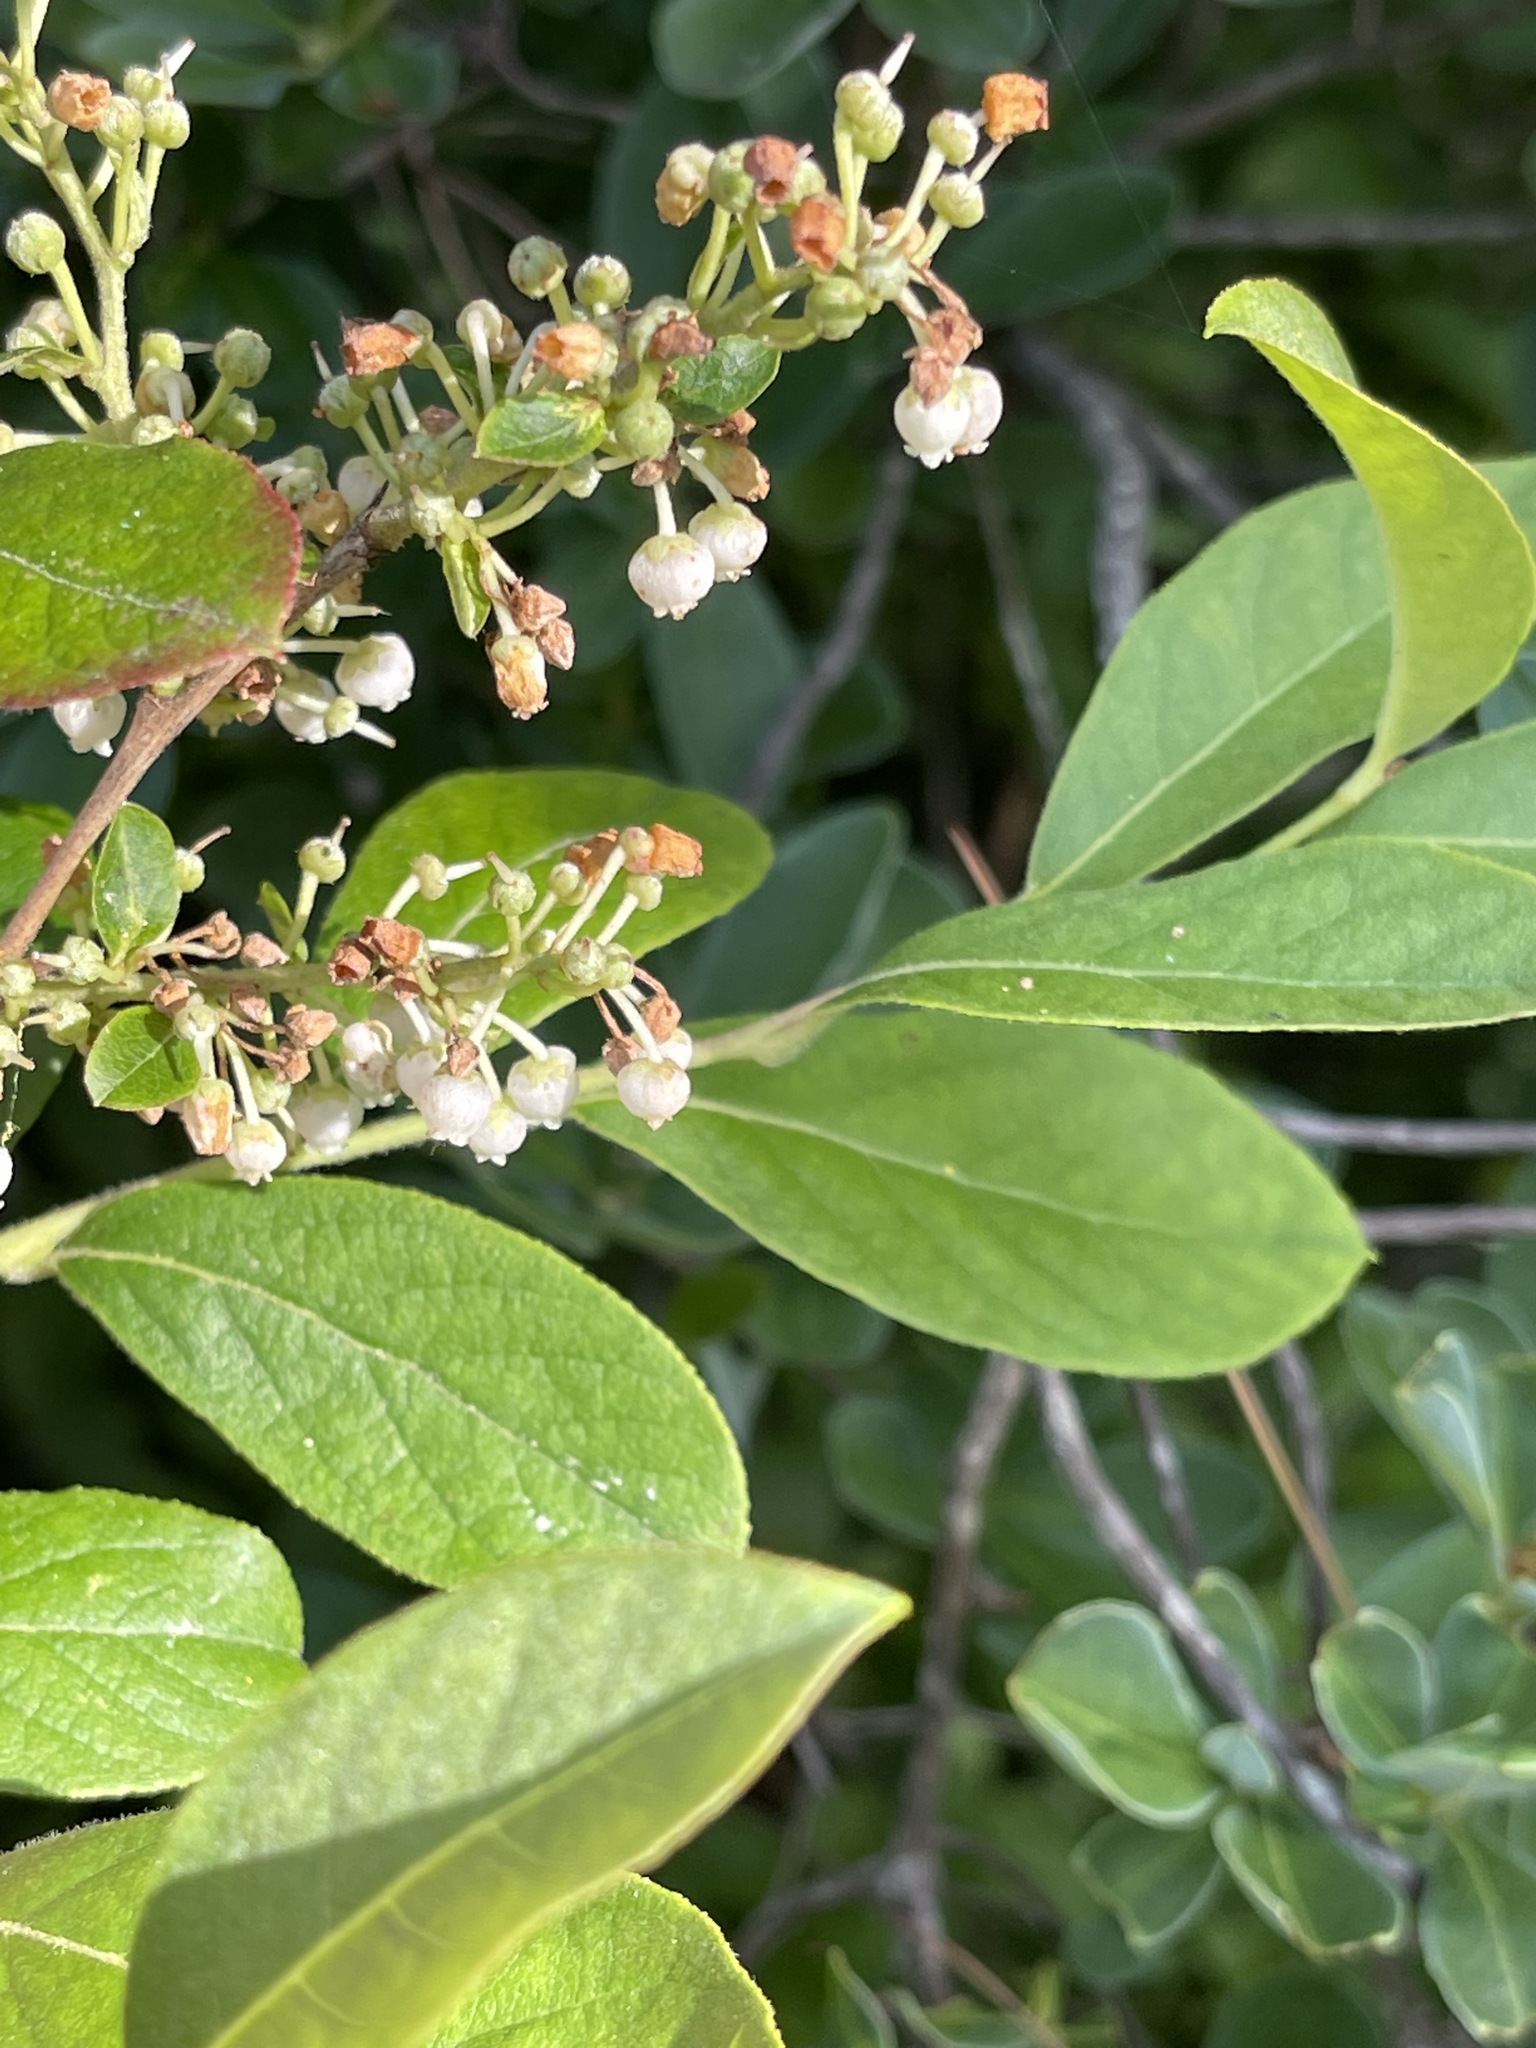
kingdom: Plantae
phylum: Tracheophyta
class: Magnoliopsida
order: Ericales
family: Ericaceae
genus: Lyonia
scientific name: Lyonia ligustrina
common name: Maleberry
